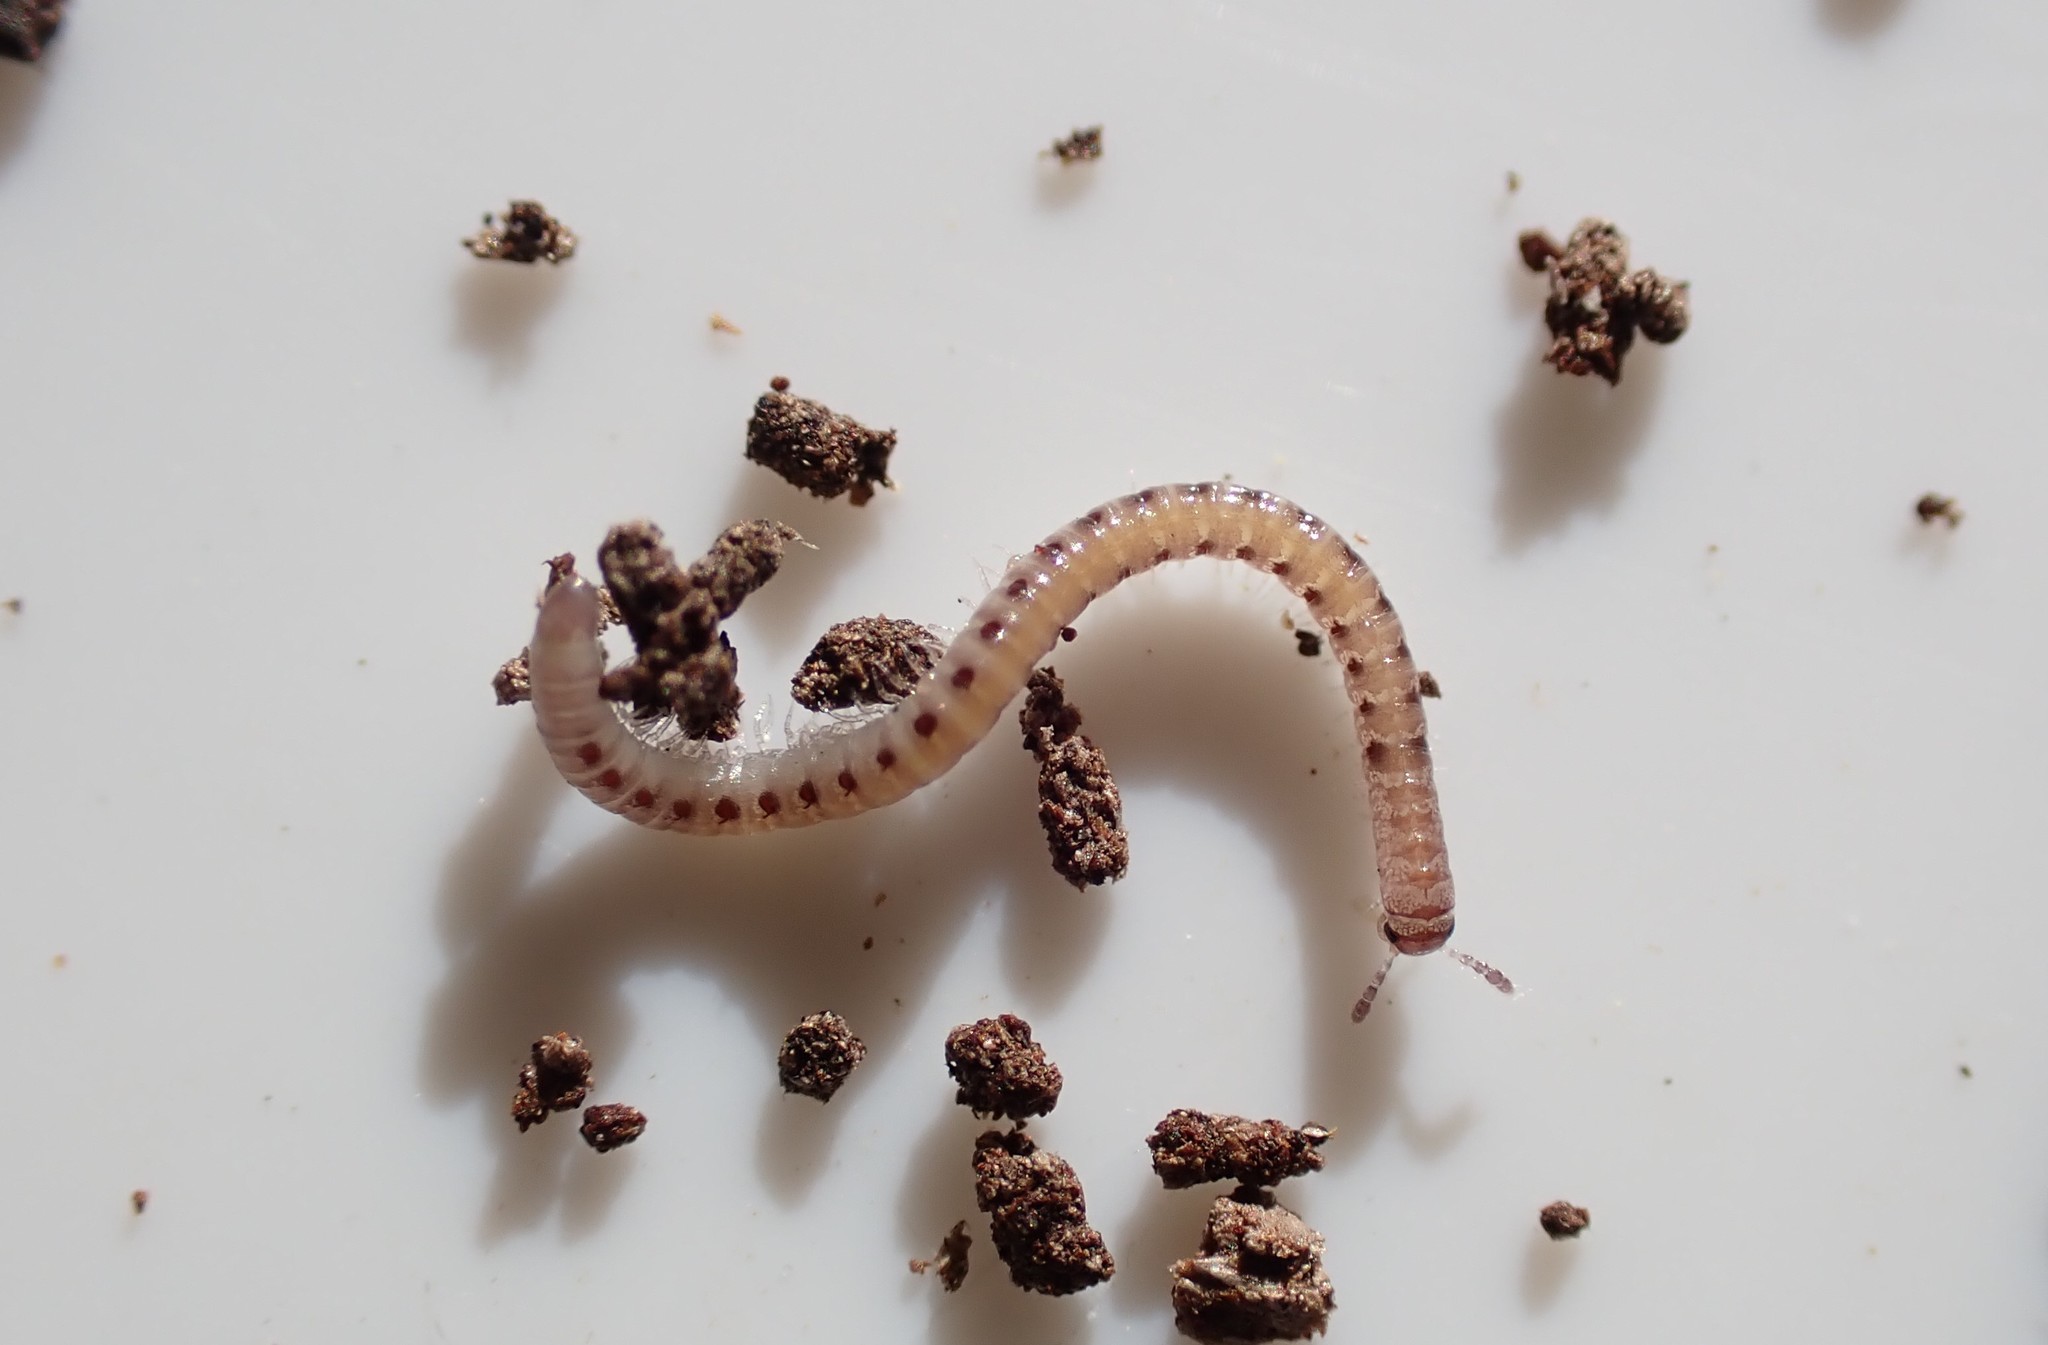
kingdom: Animalia
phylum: Arthropoda
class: Diplopoda
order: Julida
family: Nemasomatidae
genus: Nemasoma
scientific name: Nemasoma varicorne
